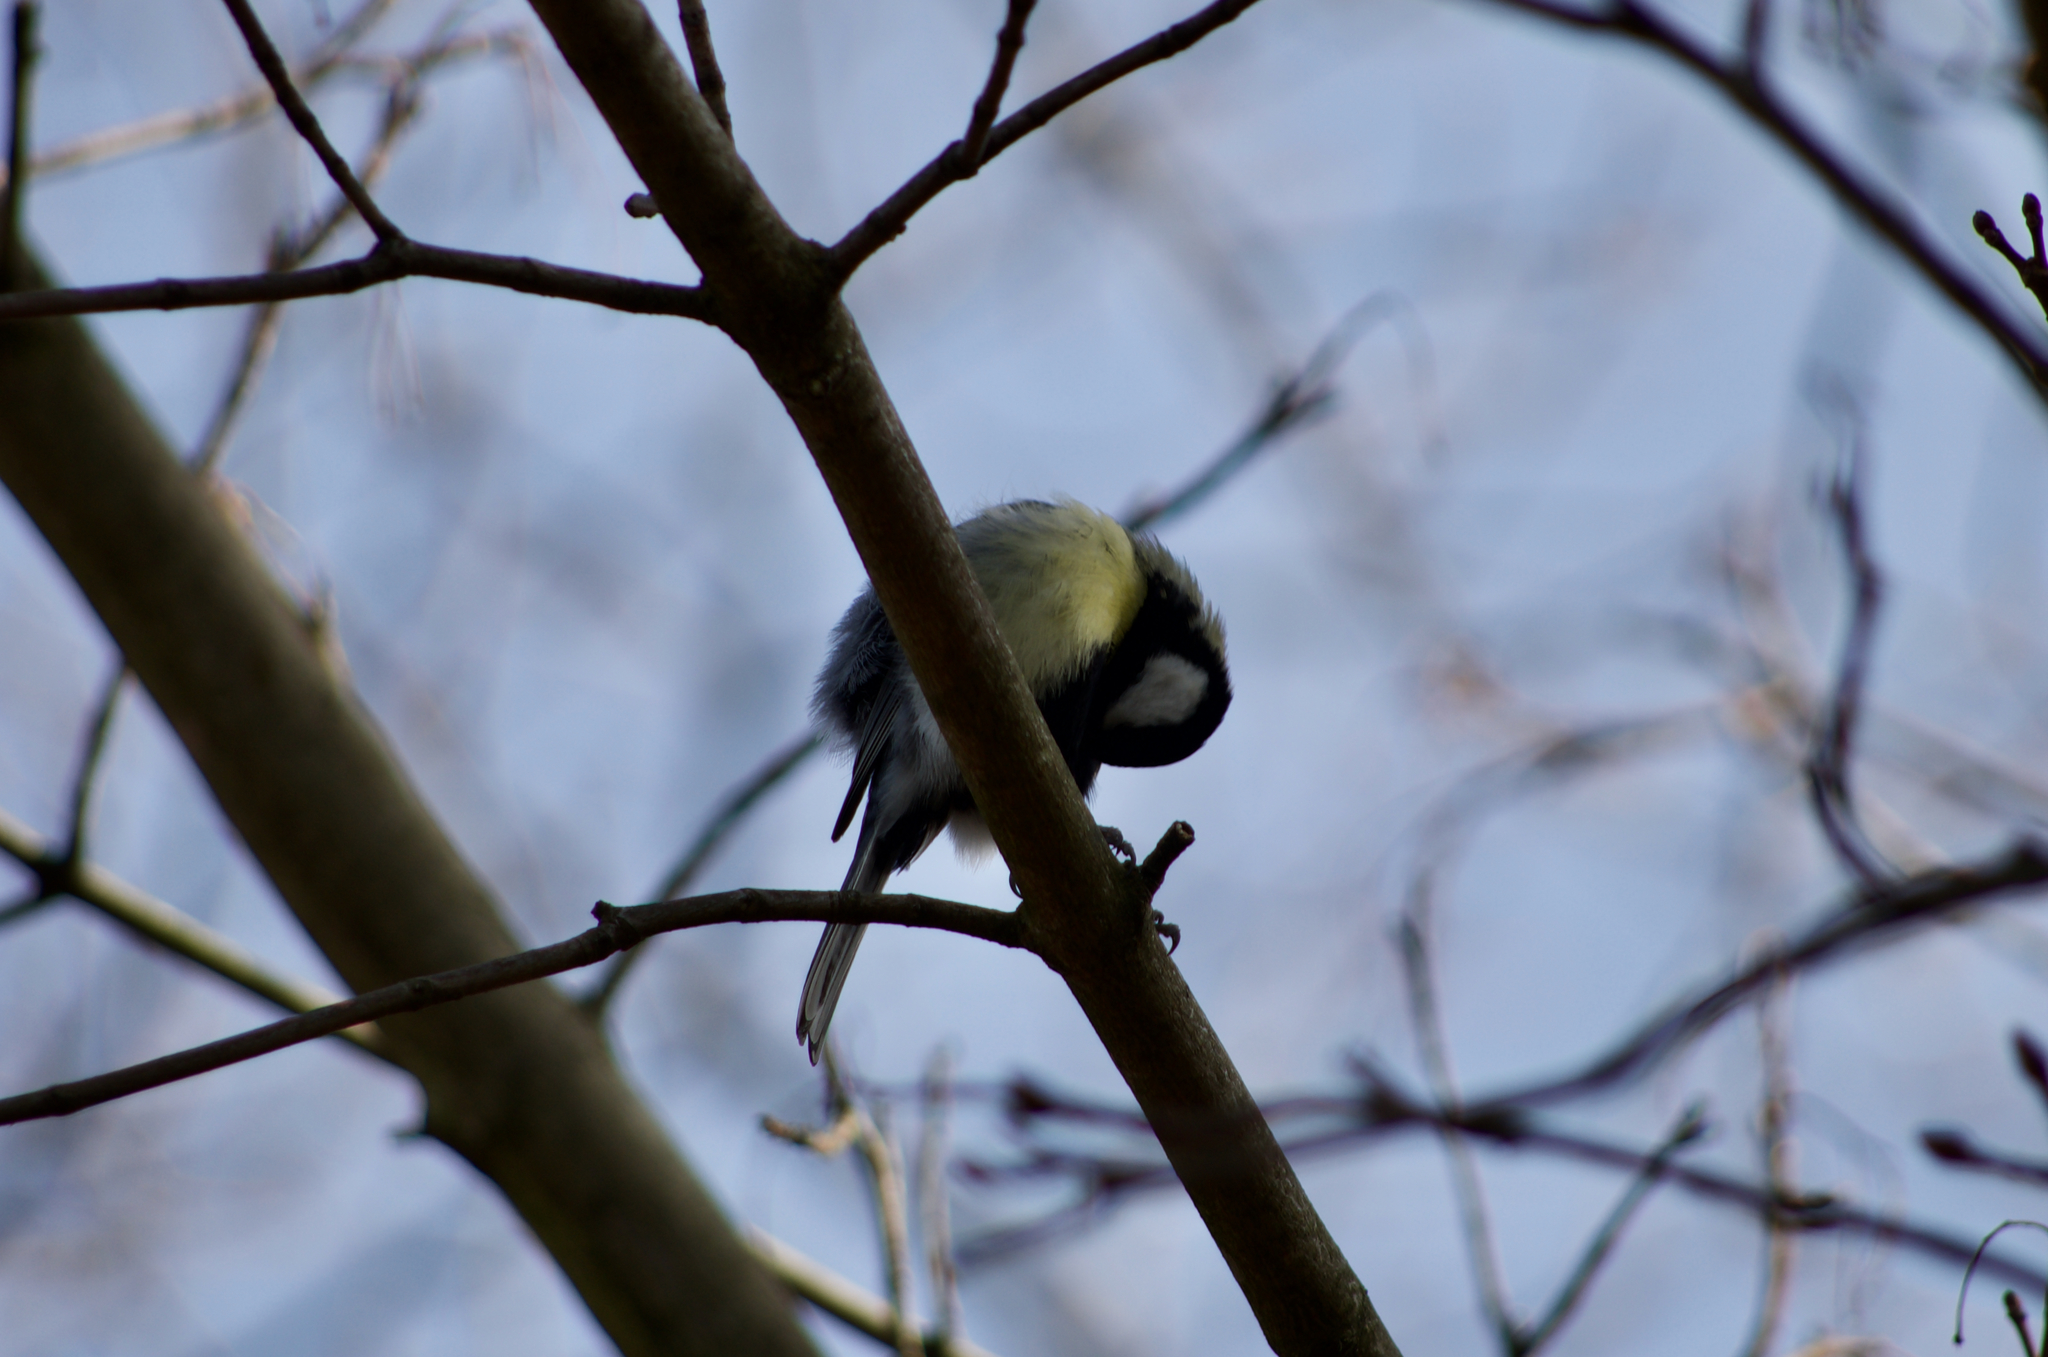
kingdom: Animalia
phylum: Chordata
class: Aves
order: Passeriformes
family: Paridae
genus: Parus
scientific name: Parus major
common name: Great tit
